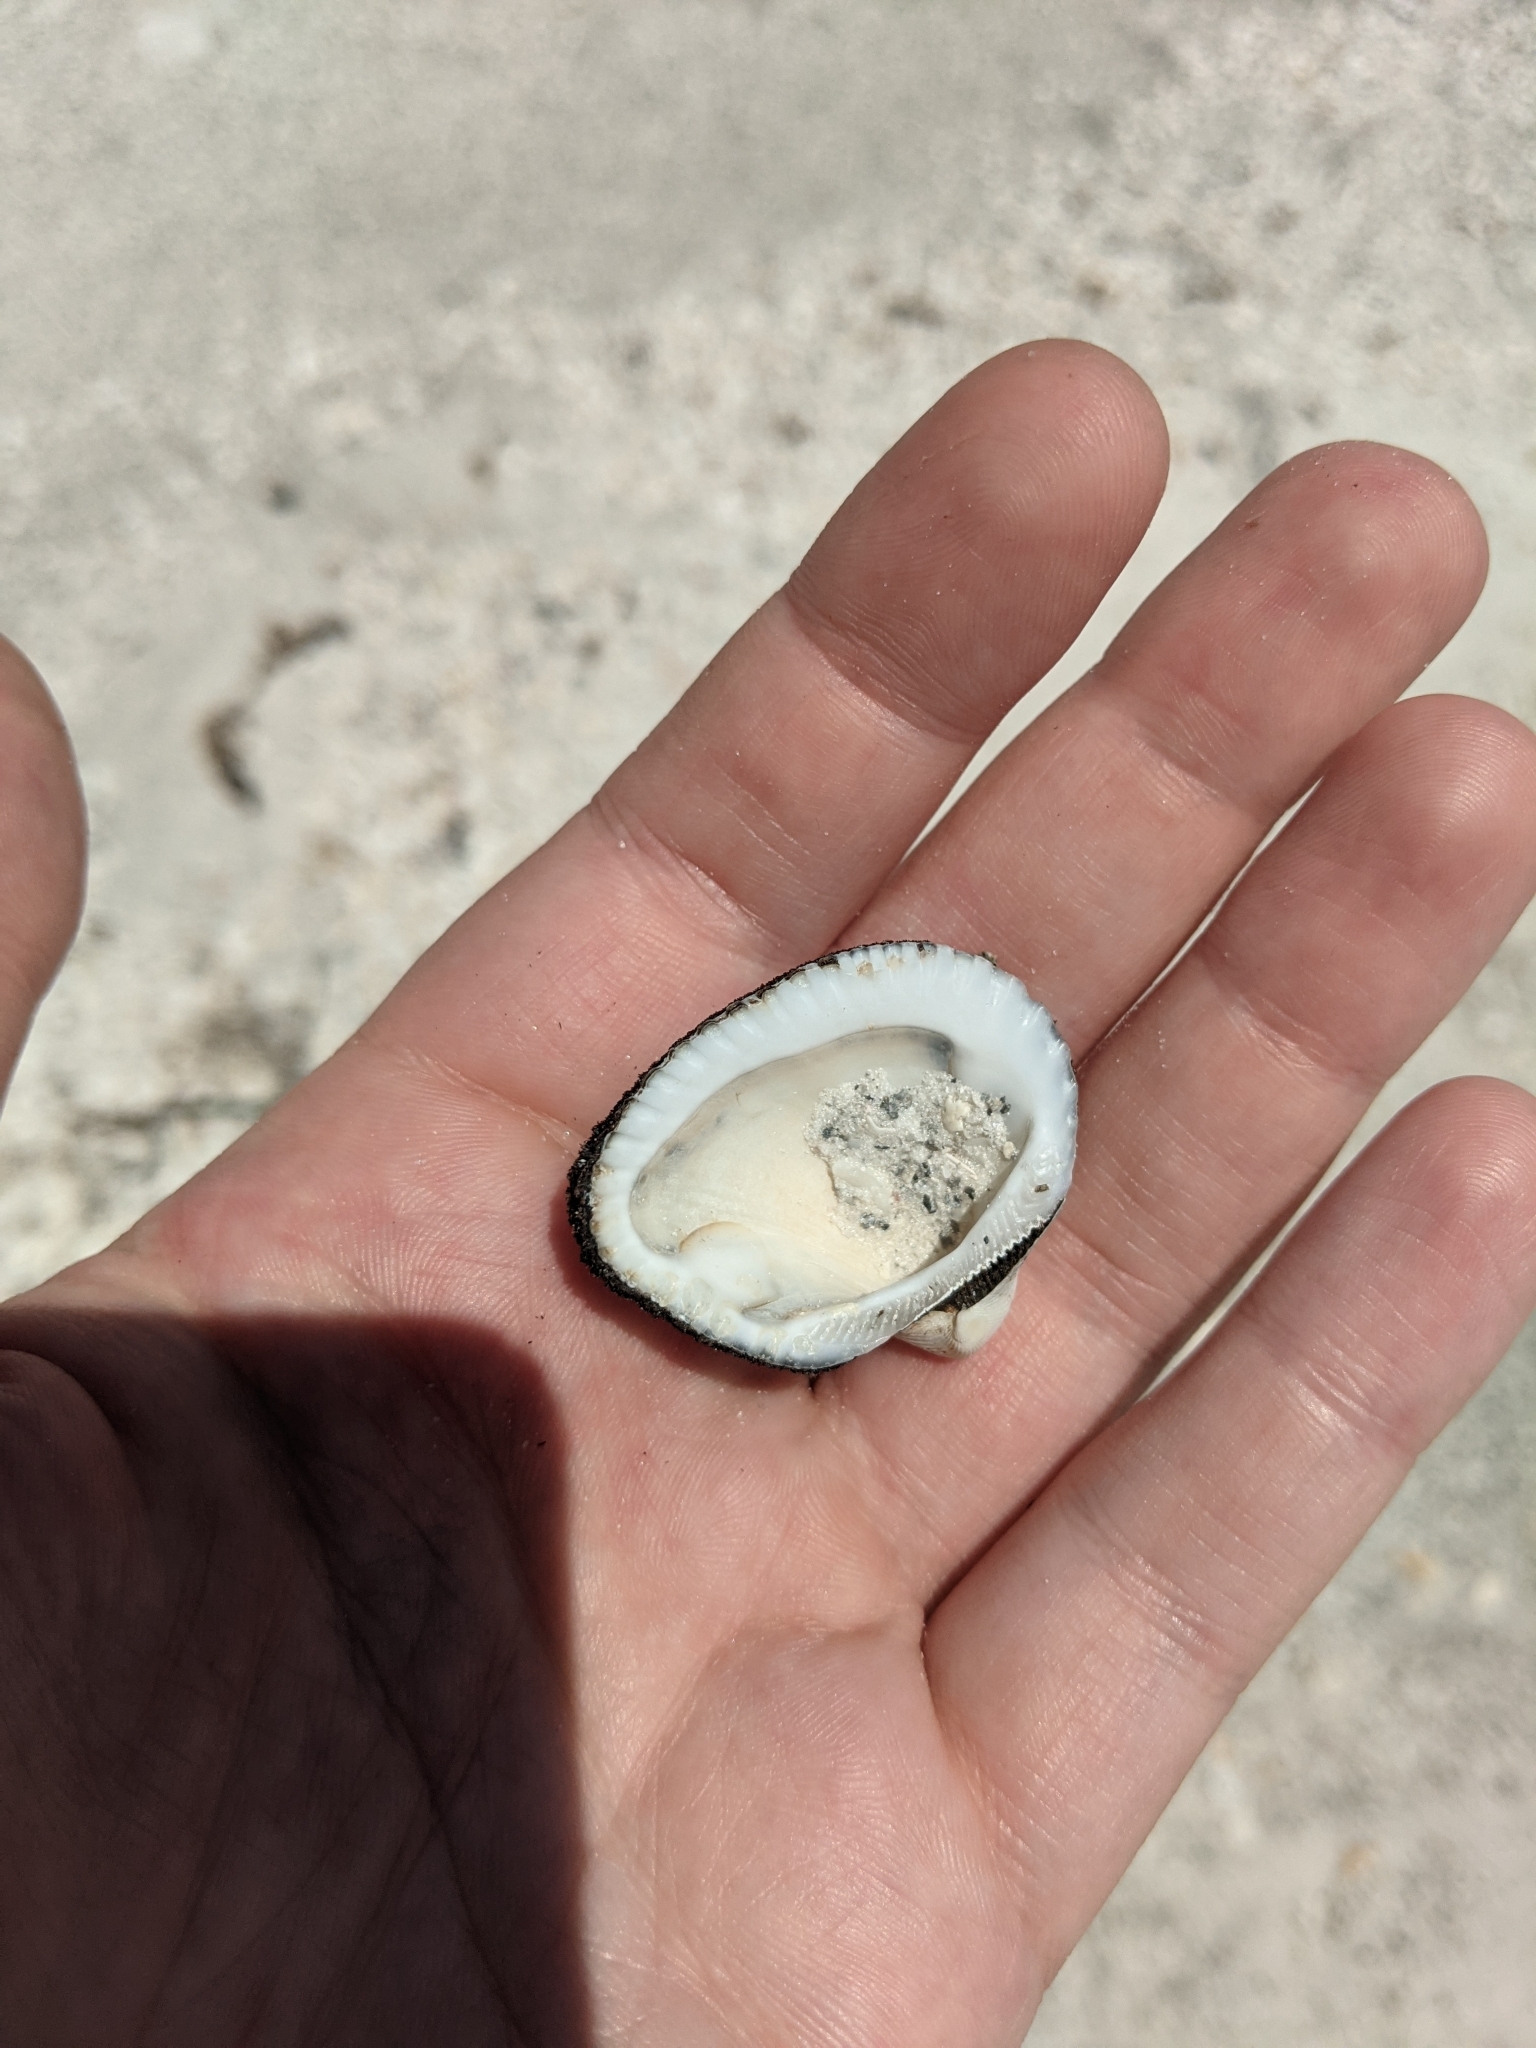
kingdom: Animalia
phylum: Mollusca
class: Bivalvia
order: Arcida
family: Noetiidae
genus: Noetia
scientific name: Noetia ponderosa
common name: Ponderous ark
